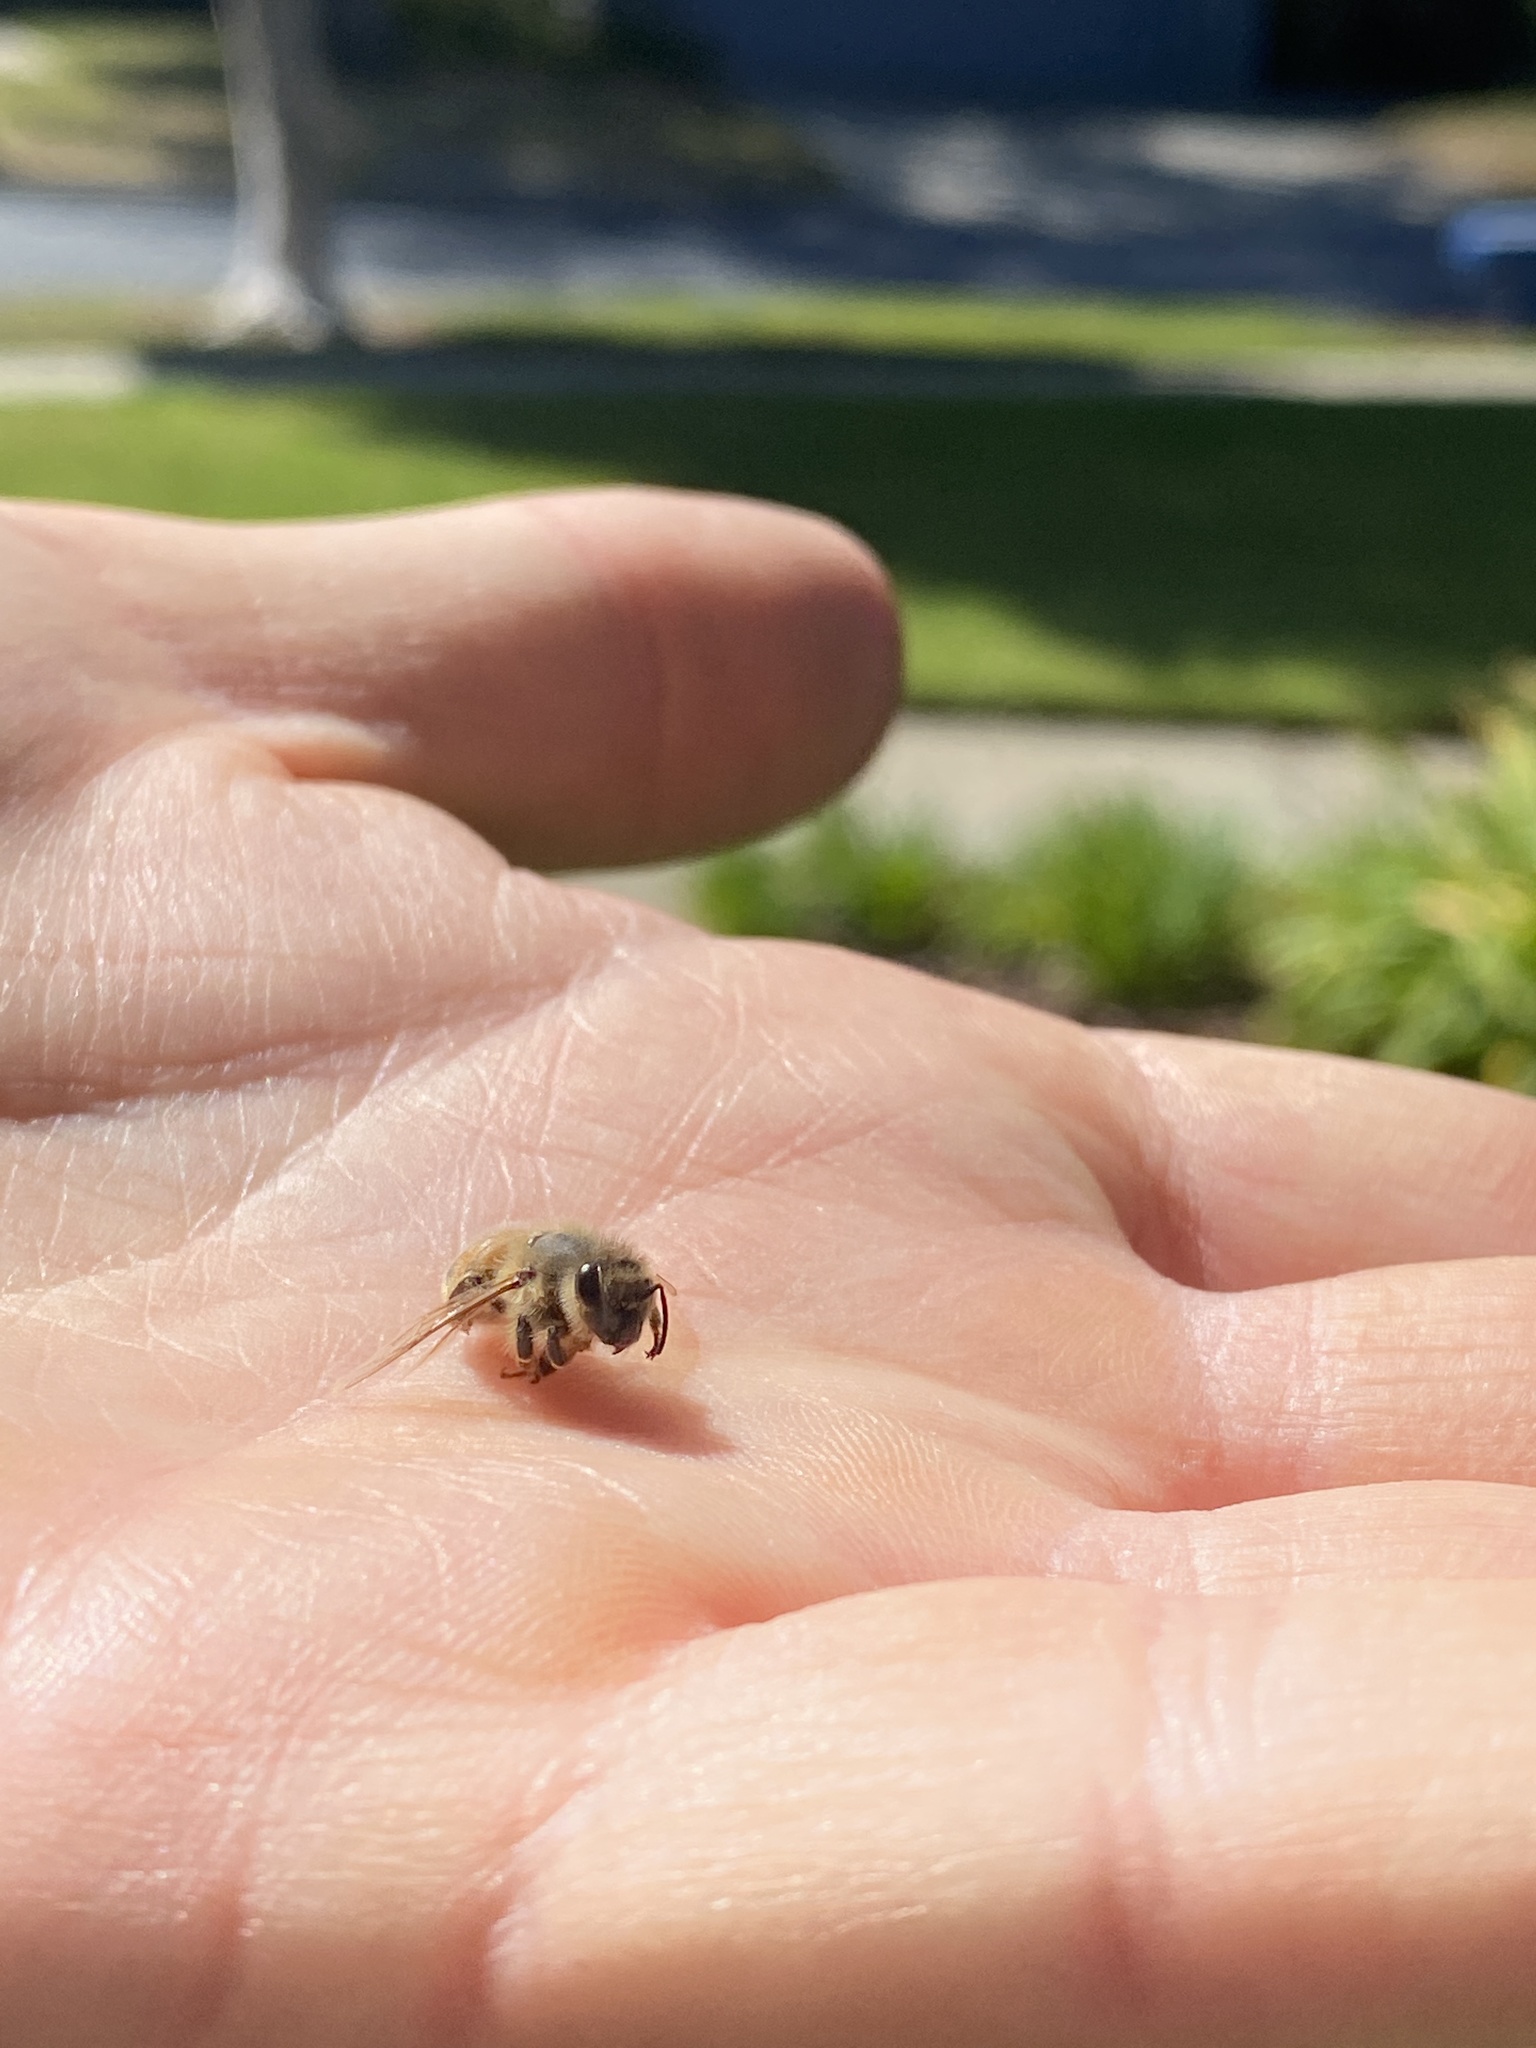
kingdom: Animalia
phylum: Arthropoda
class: Insecta
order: Hymenoptera
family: Apidae
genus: Apis
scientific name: Apis mellifera
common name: Honey bee
